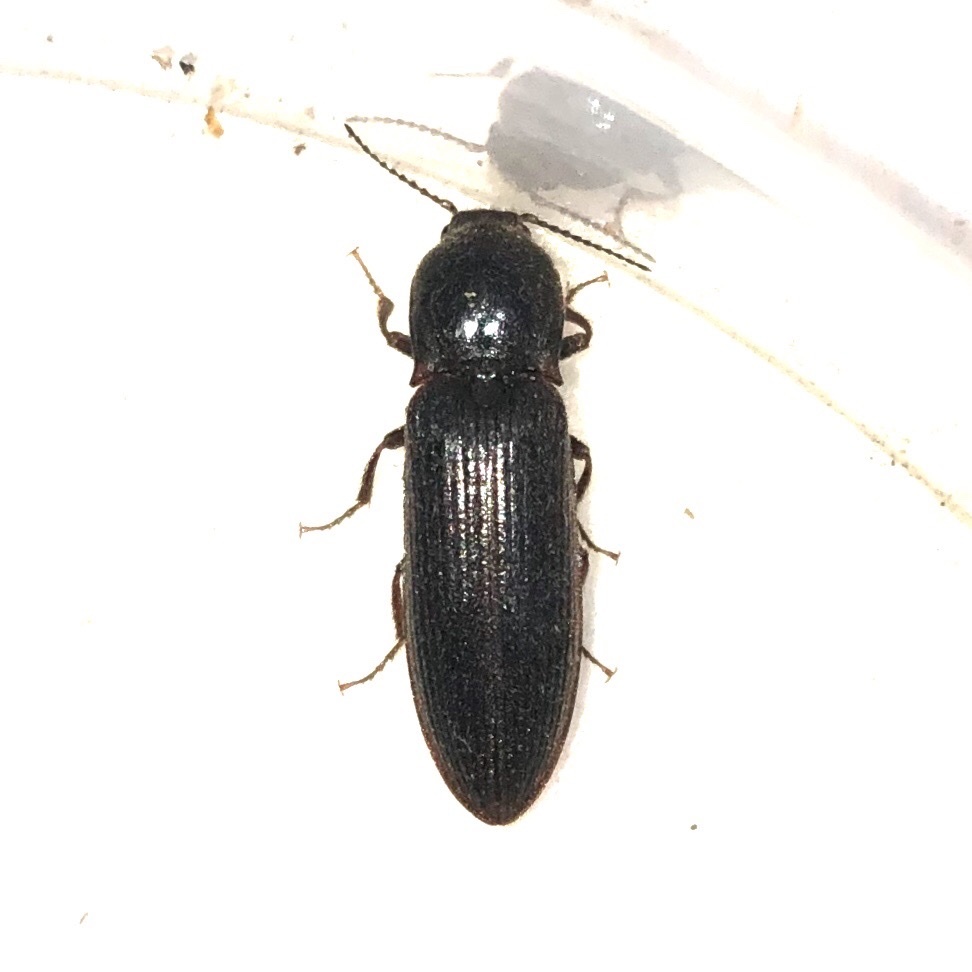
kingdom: Animalia
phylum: Arthropoda
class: Insecta
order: Coleoptera
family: Elateridae
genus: Sylvanelater
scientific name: Sylvanelater cylindriformis
